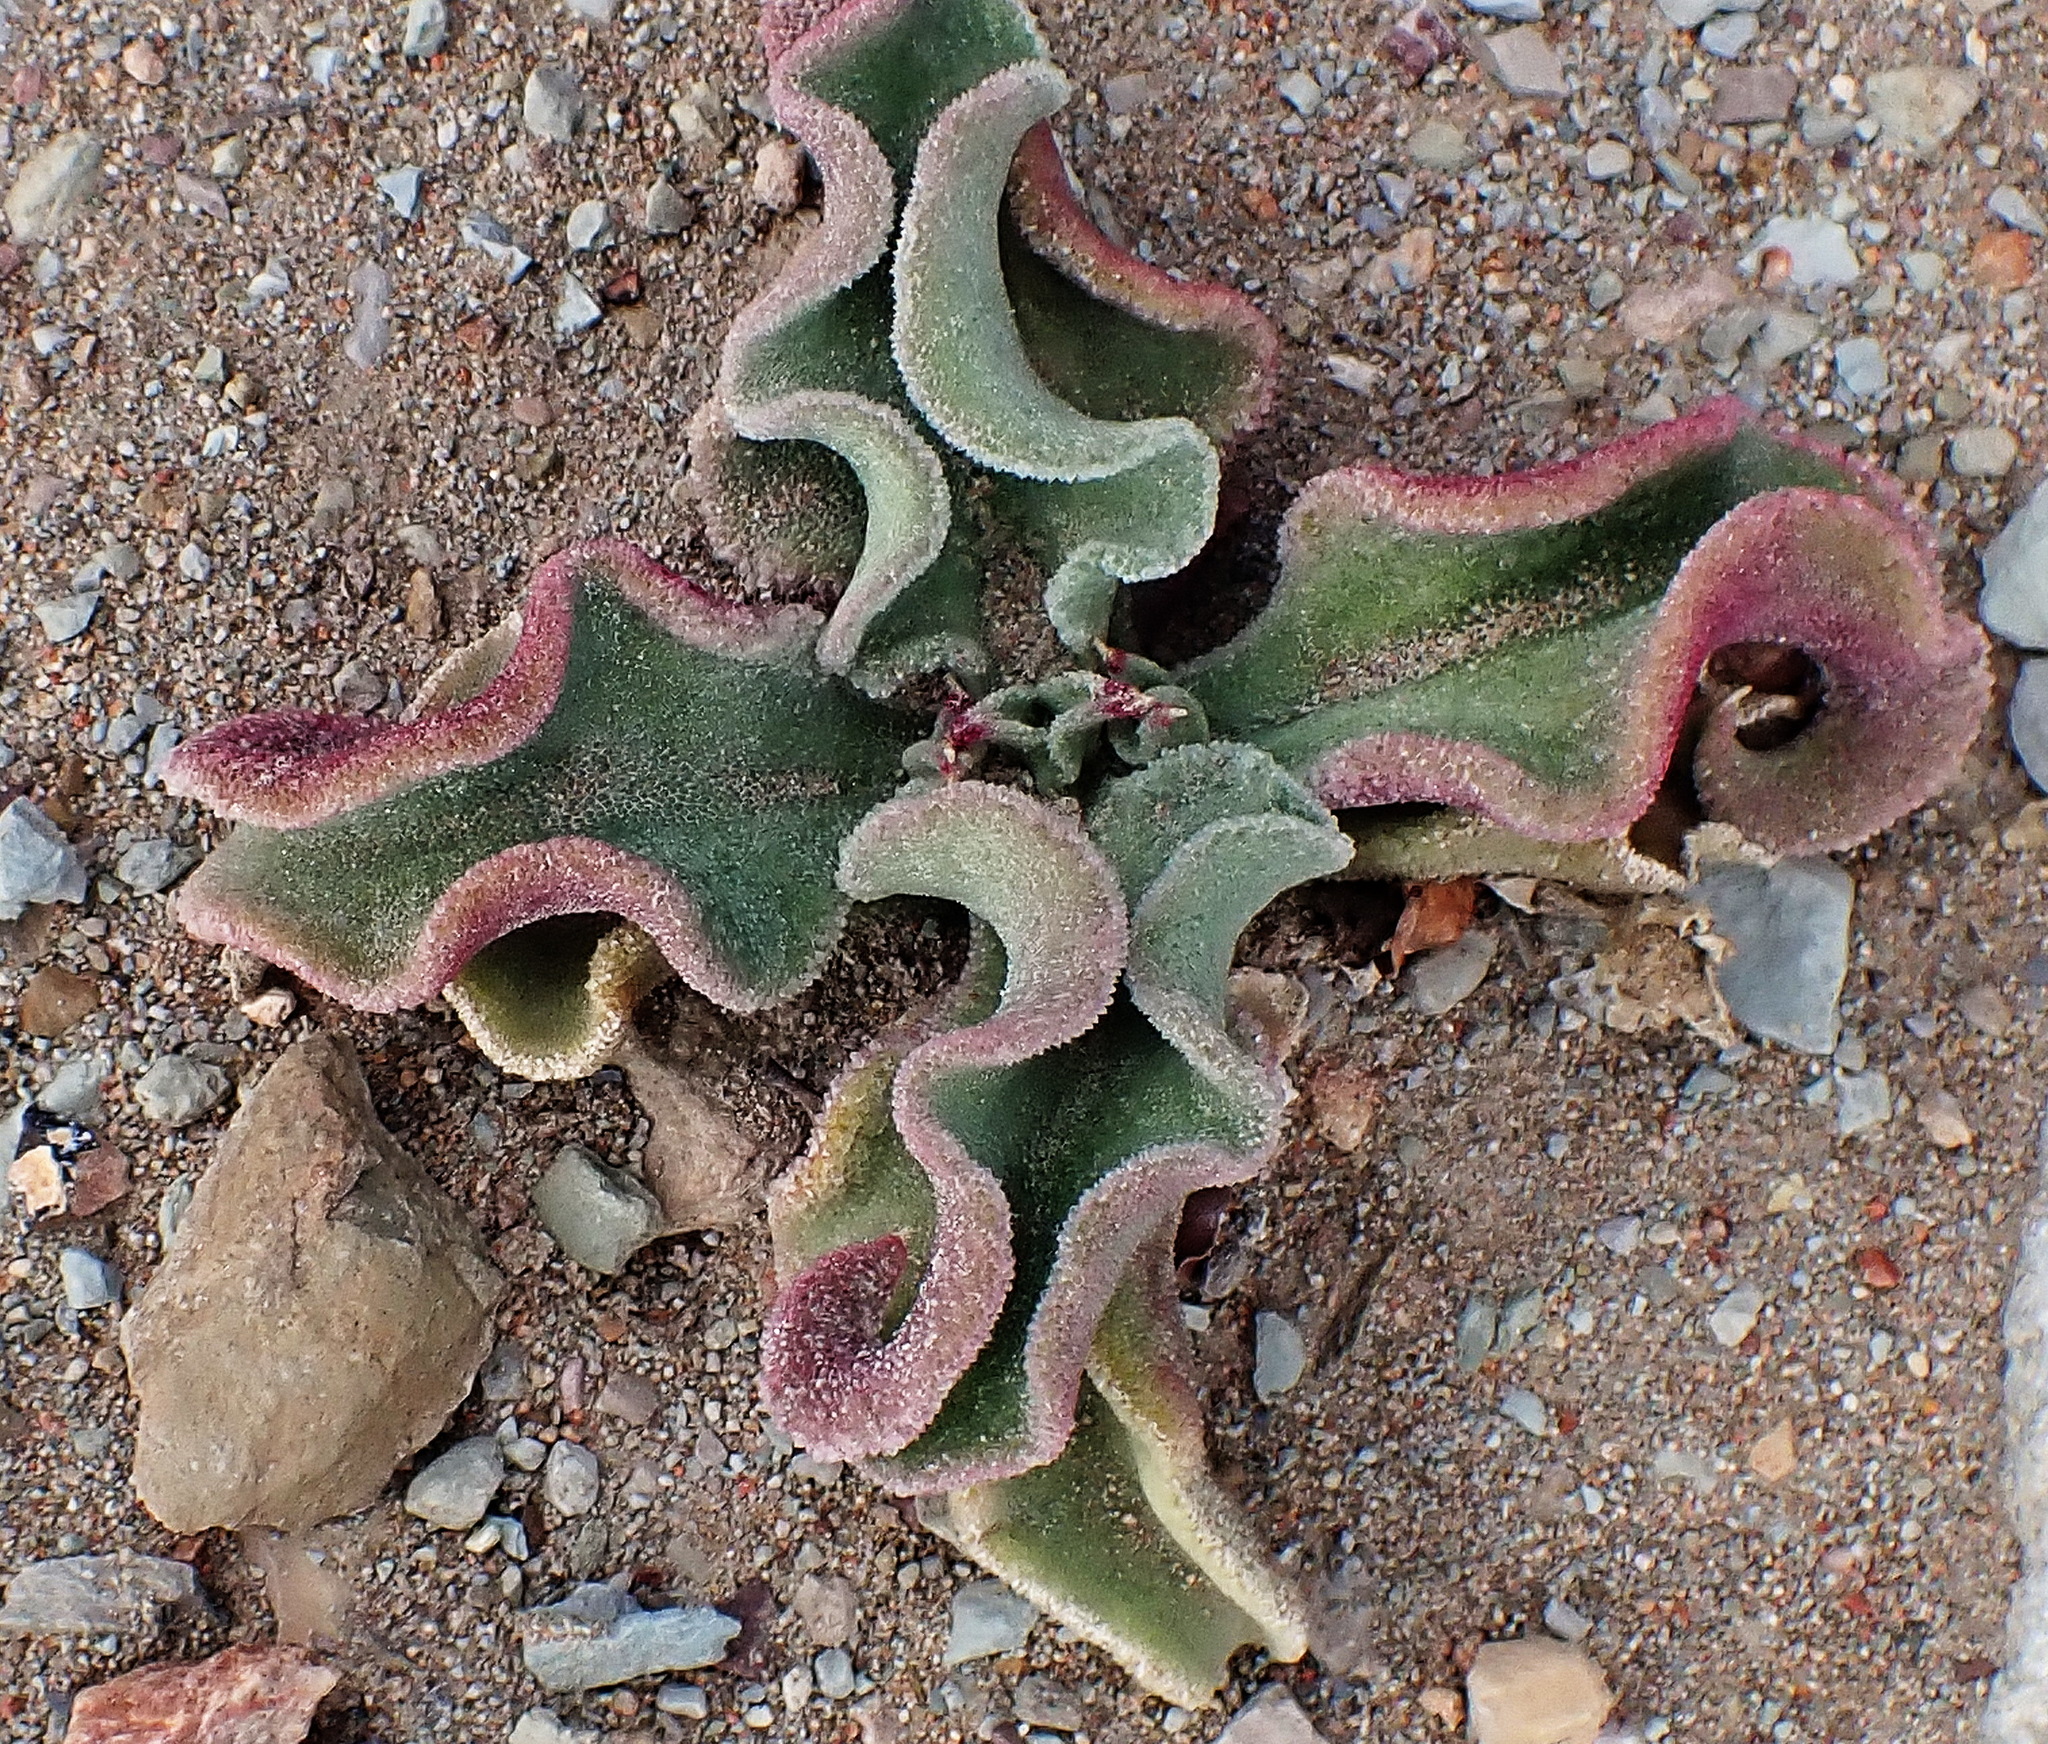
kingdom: Plantae
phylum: Tracheophyta
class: Magnoliopsida
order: Caryophyllales
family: Aizoaceae
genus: Mesembryanthemum
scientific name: Mesembryanthemum crystallinum
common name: Common iceplant
